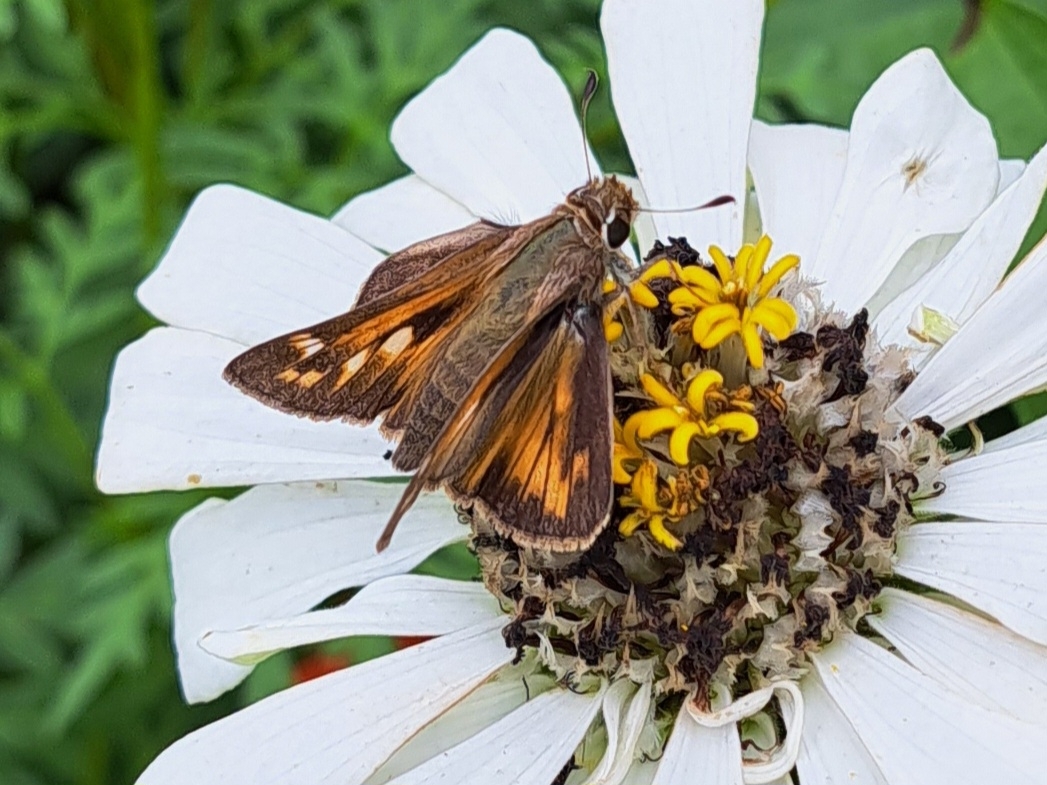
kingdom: Animalia
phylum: Arthropoda
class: Insecta
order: Lepidoptera
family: Hesperiidae
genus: Atalopedes
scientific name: Atalopedes
